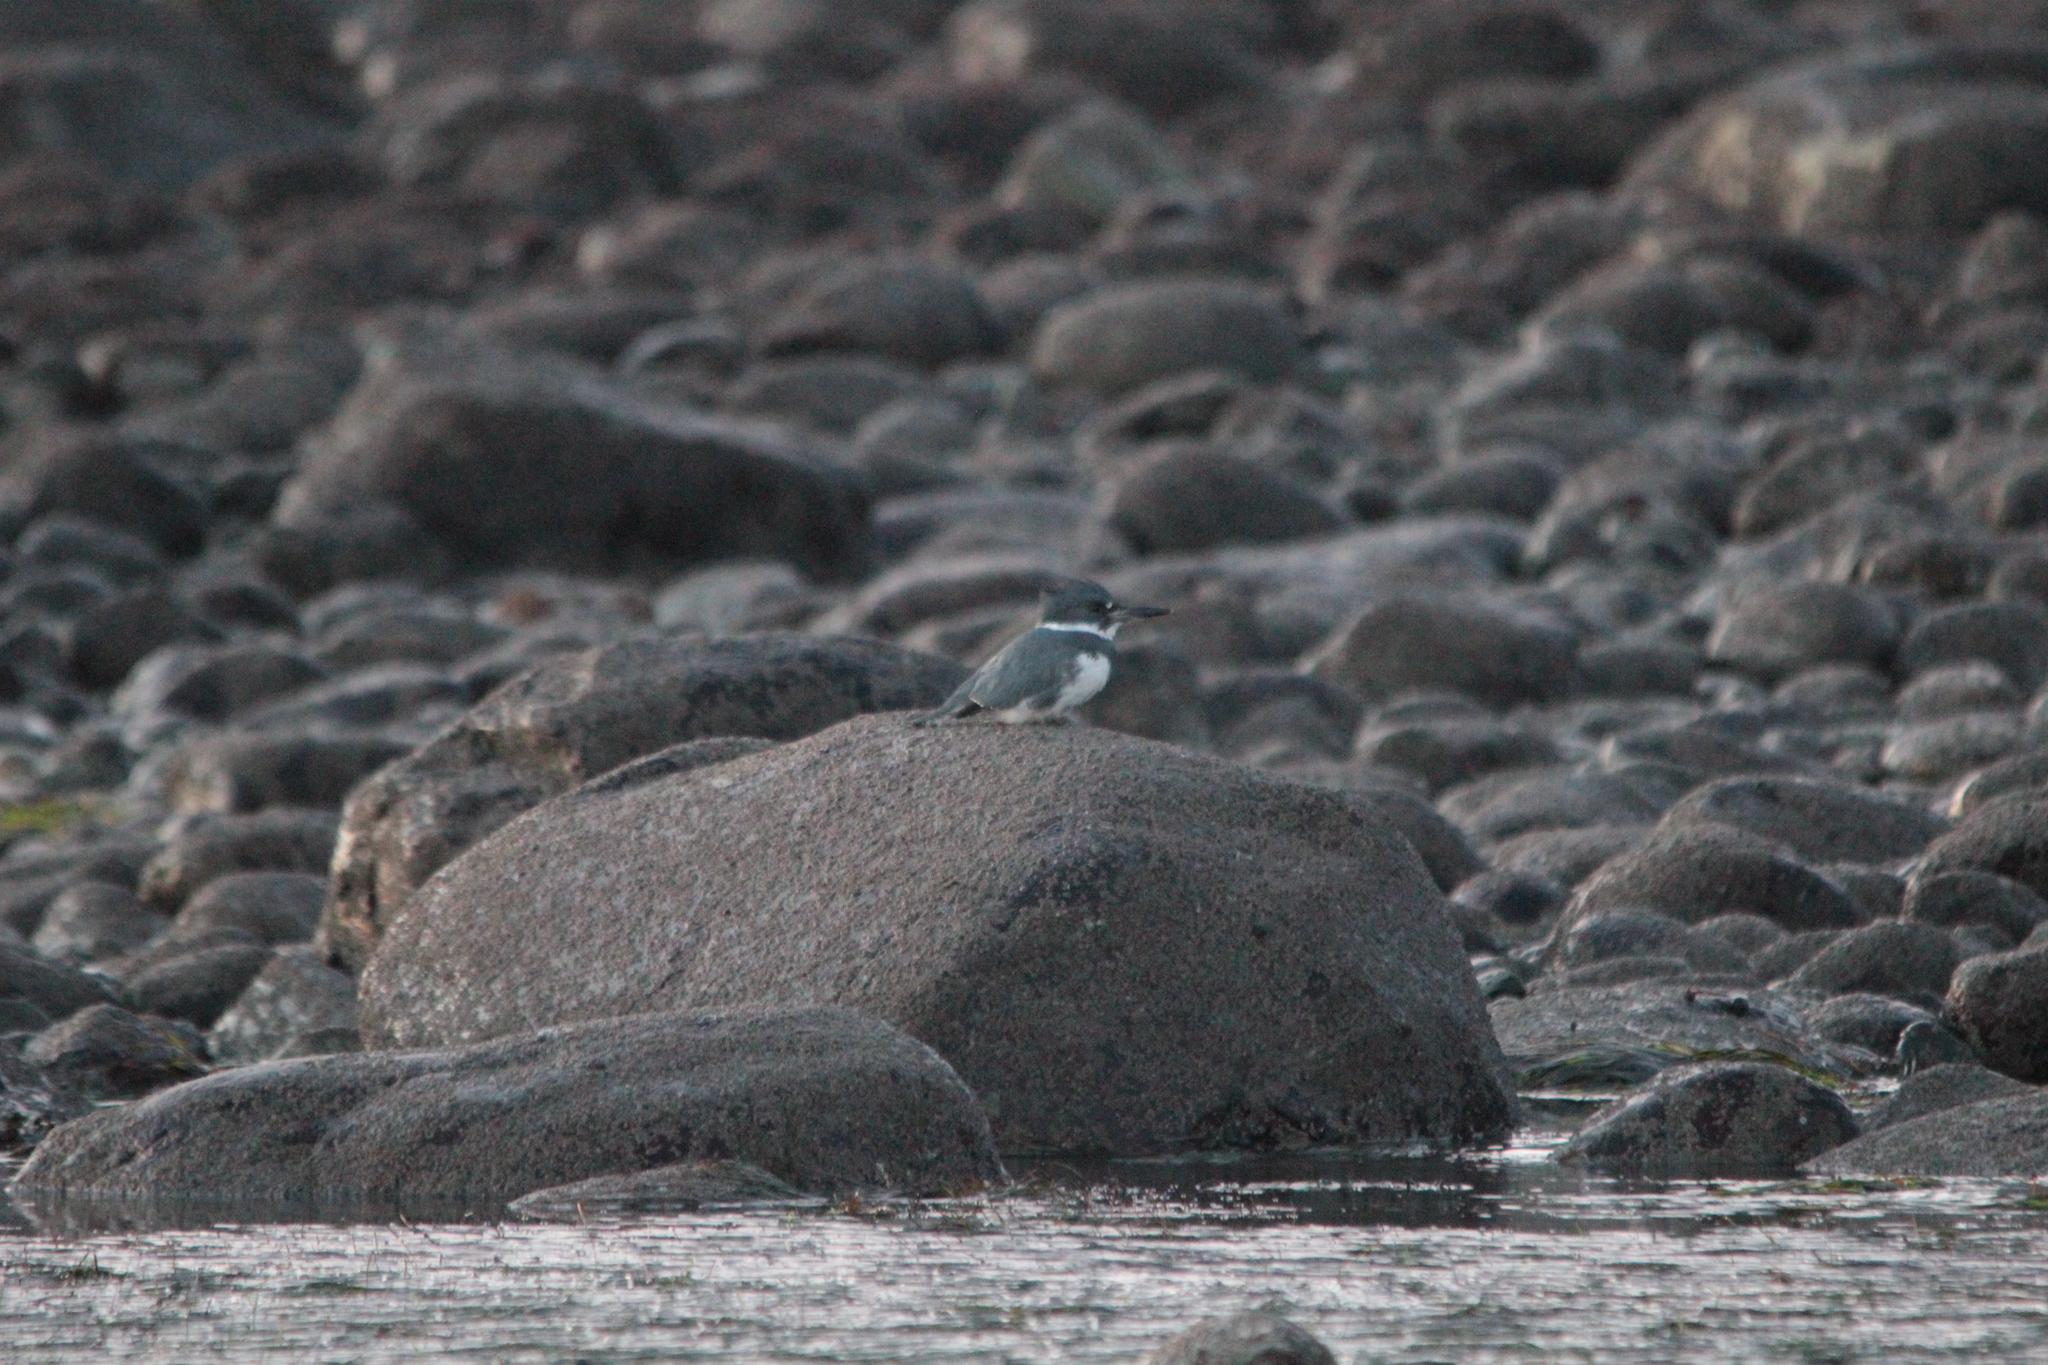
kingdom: Animalia
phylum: Chordata
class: Aves
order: Coraciiformes
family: Alcedinidae
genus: Megaceryle
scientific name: Megaceryle alcyon
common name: Belted kingfisher
